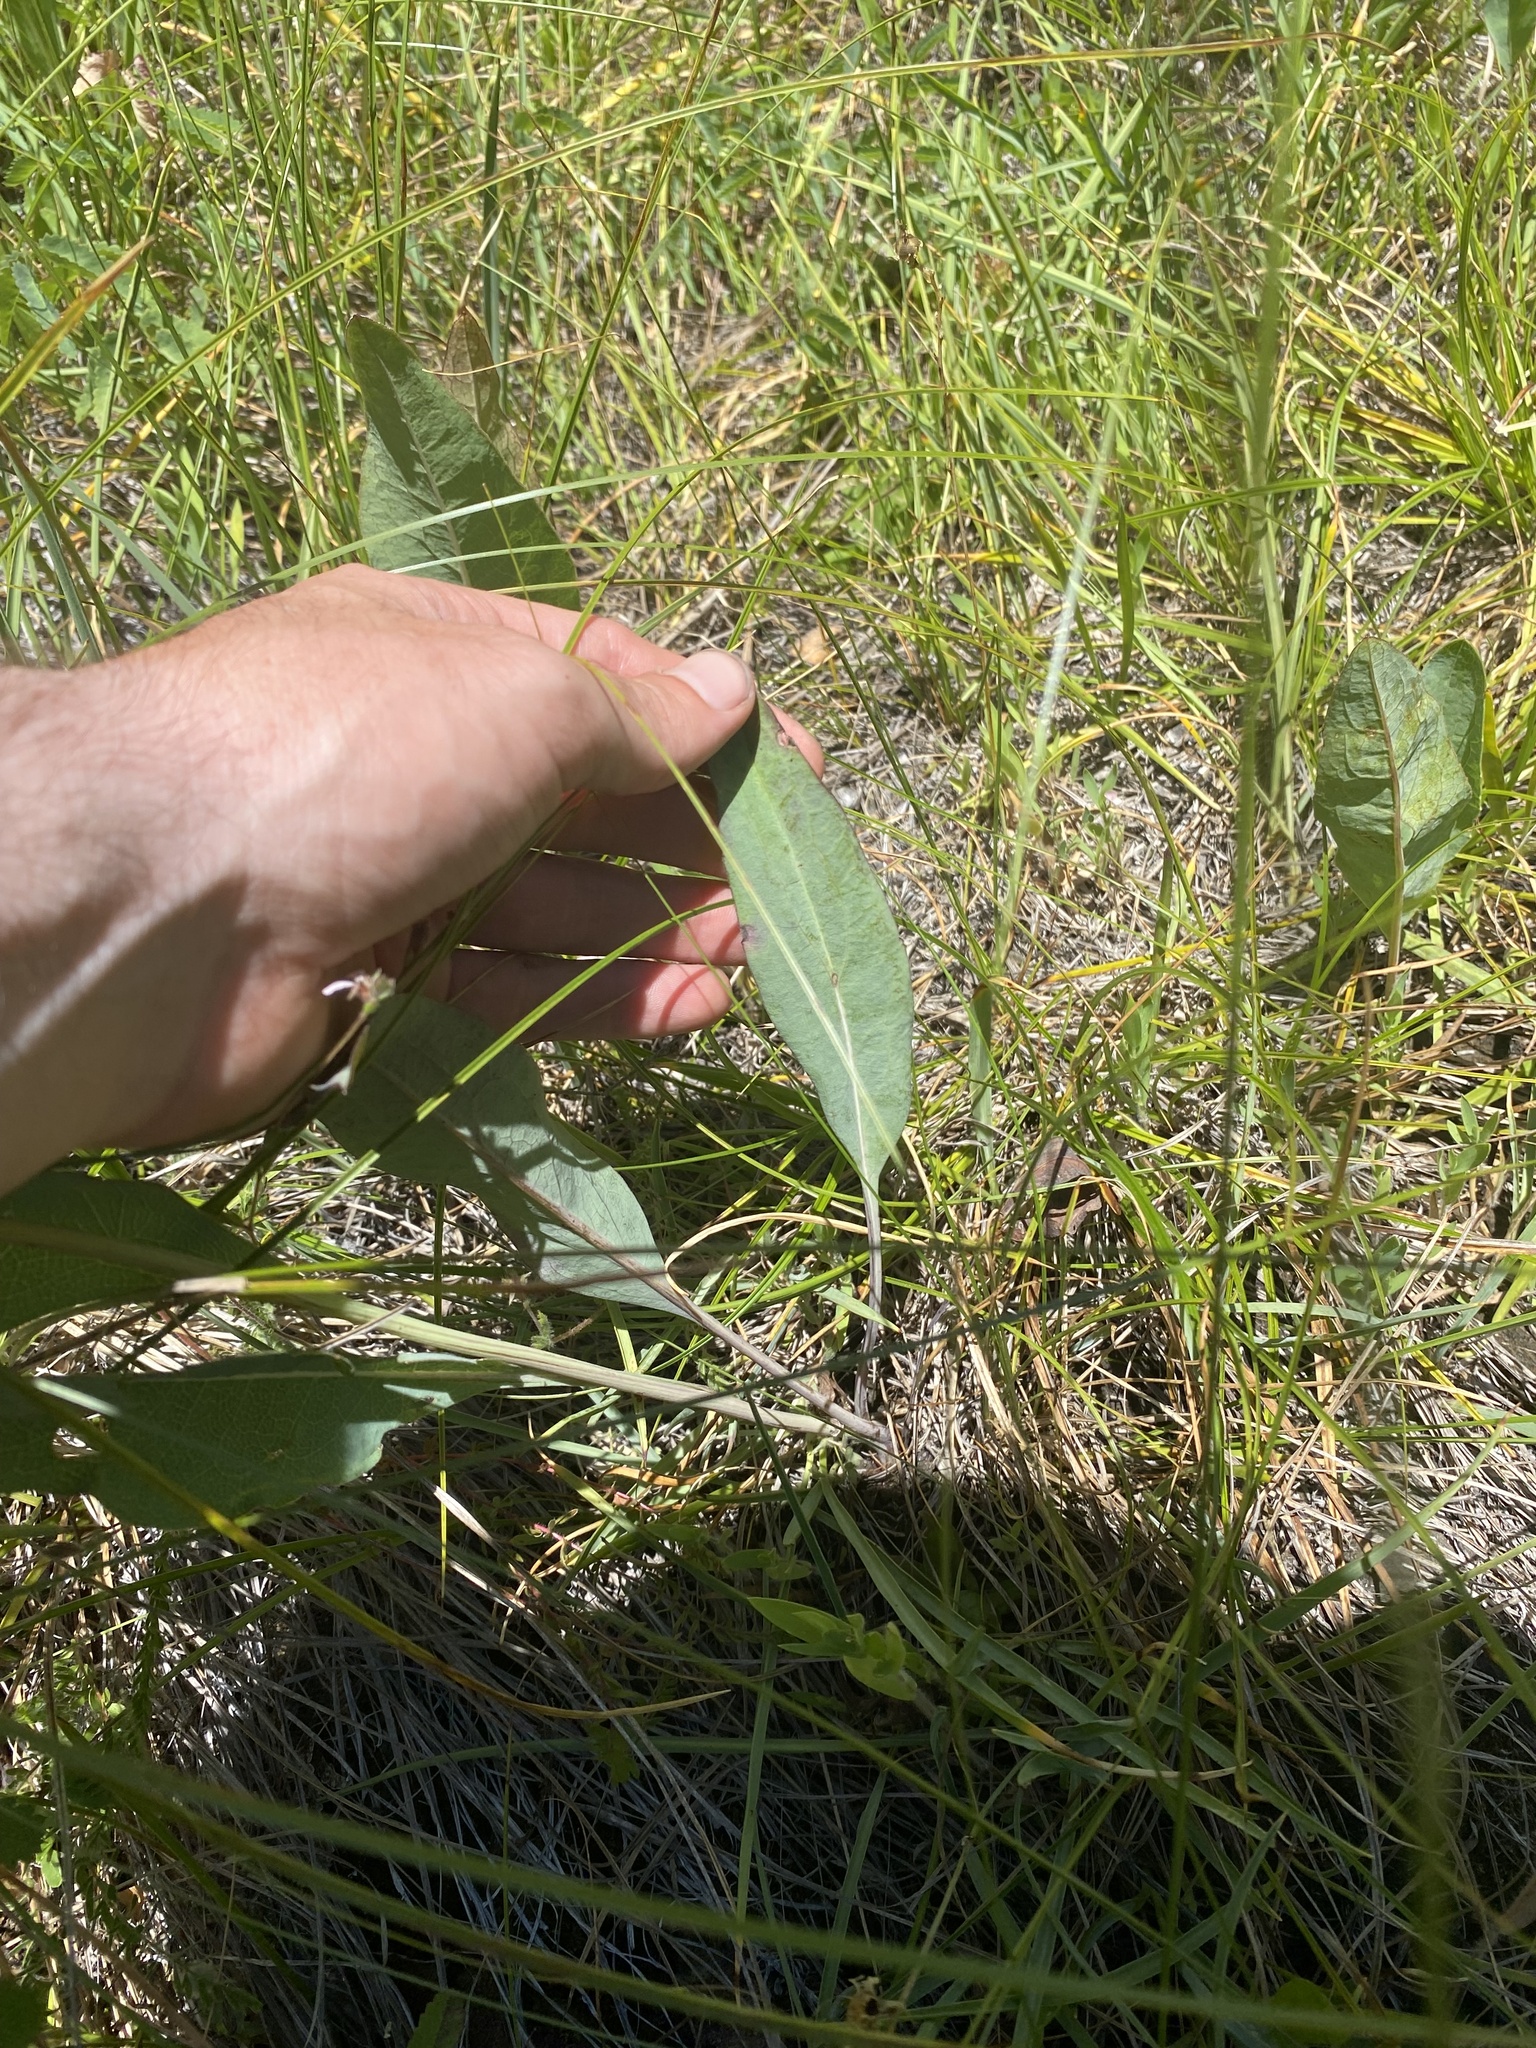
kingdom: Plantae
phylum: Tracheophyta
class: Magnoliopsida
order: Asterales
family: Asteraceae
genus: Rudbeckia
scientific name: Rudbeckia glaucescens
